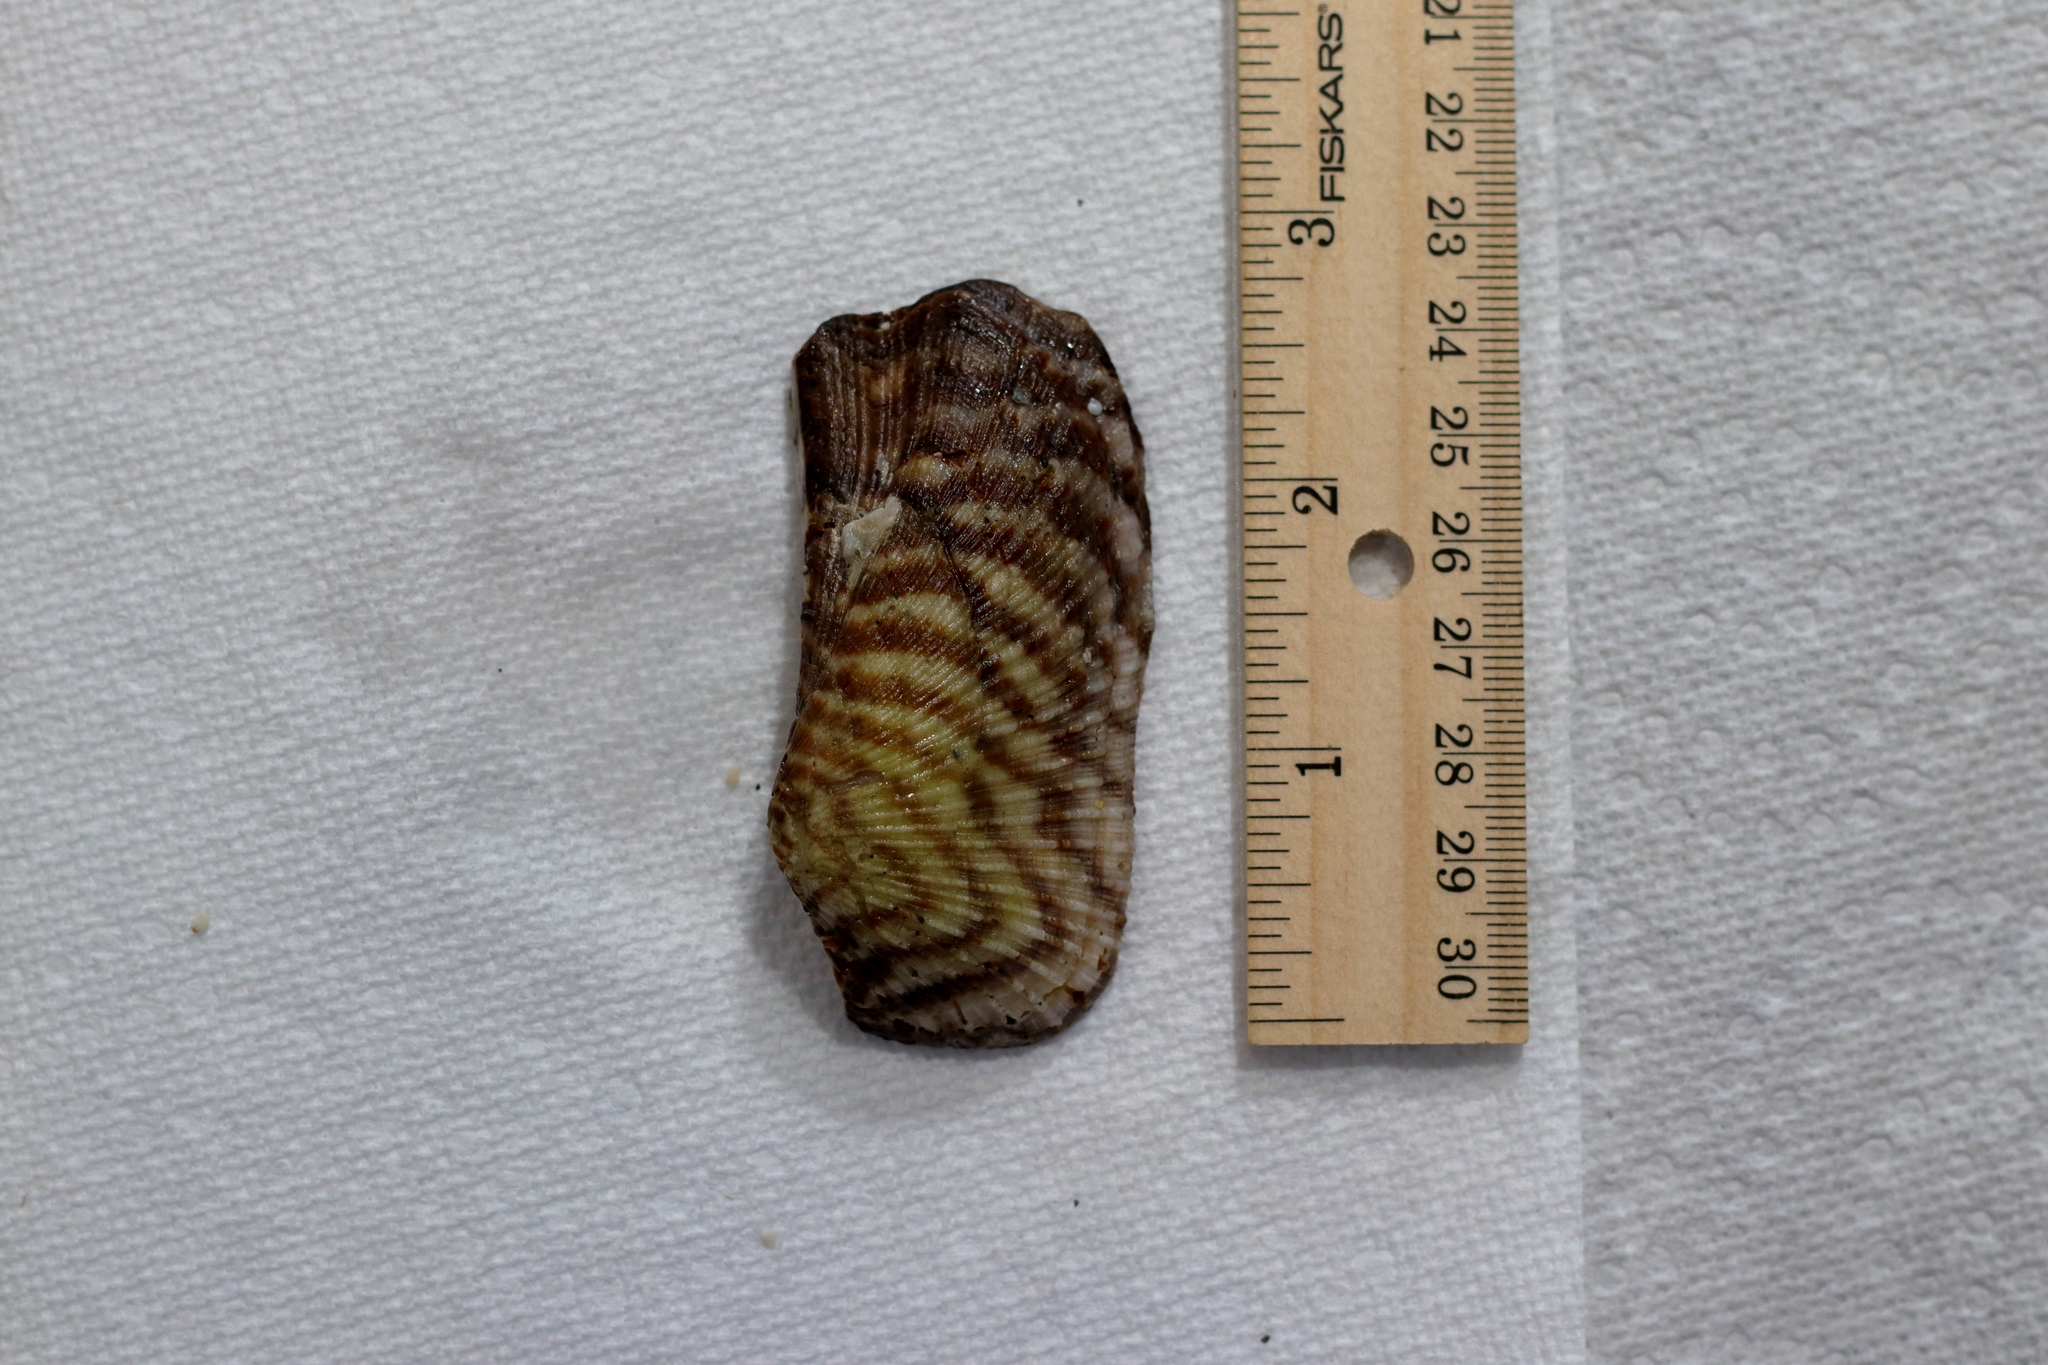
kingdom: Animalia
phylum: Mollusca
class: Bivalvia
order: Arcida
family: Arcidae
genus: Arca
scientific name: Arca zebra
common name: Atlantic turkey wing
